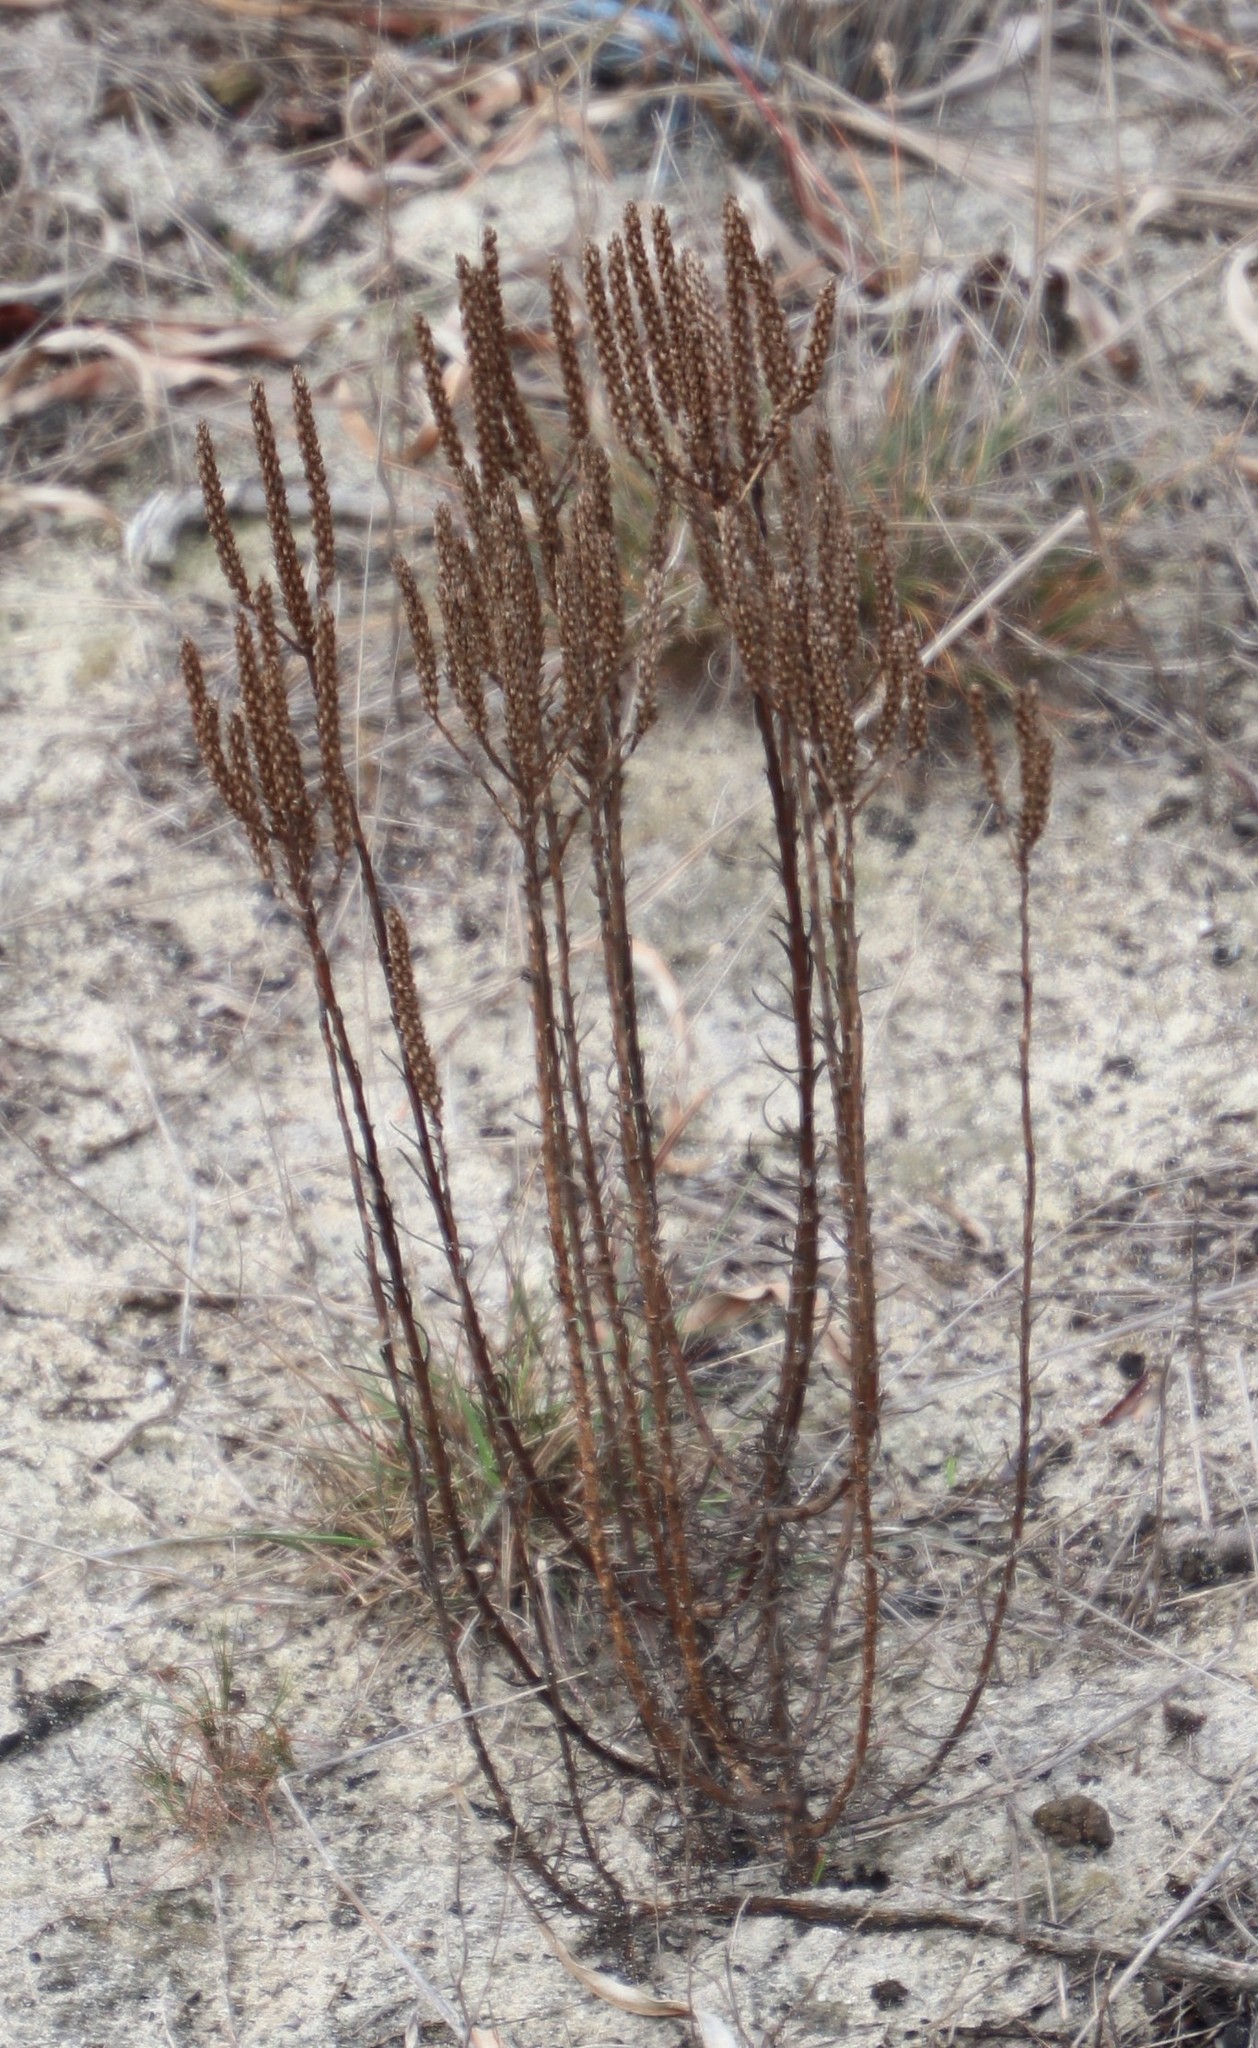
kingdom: Plantae
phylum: Tracheophyta
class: Magnoliopsida
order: Lamiales
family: Scrophulariaceae
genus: Pseudoselago
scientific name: Pseudoselago spuria
